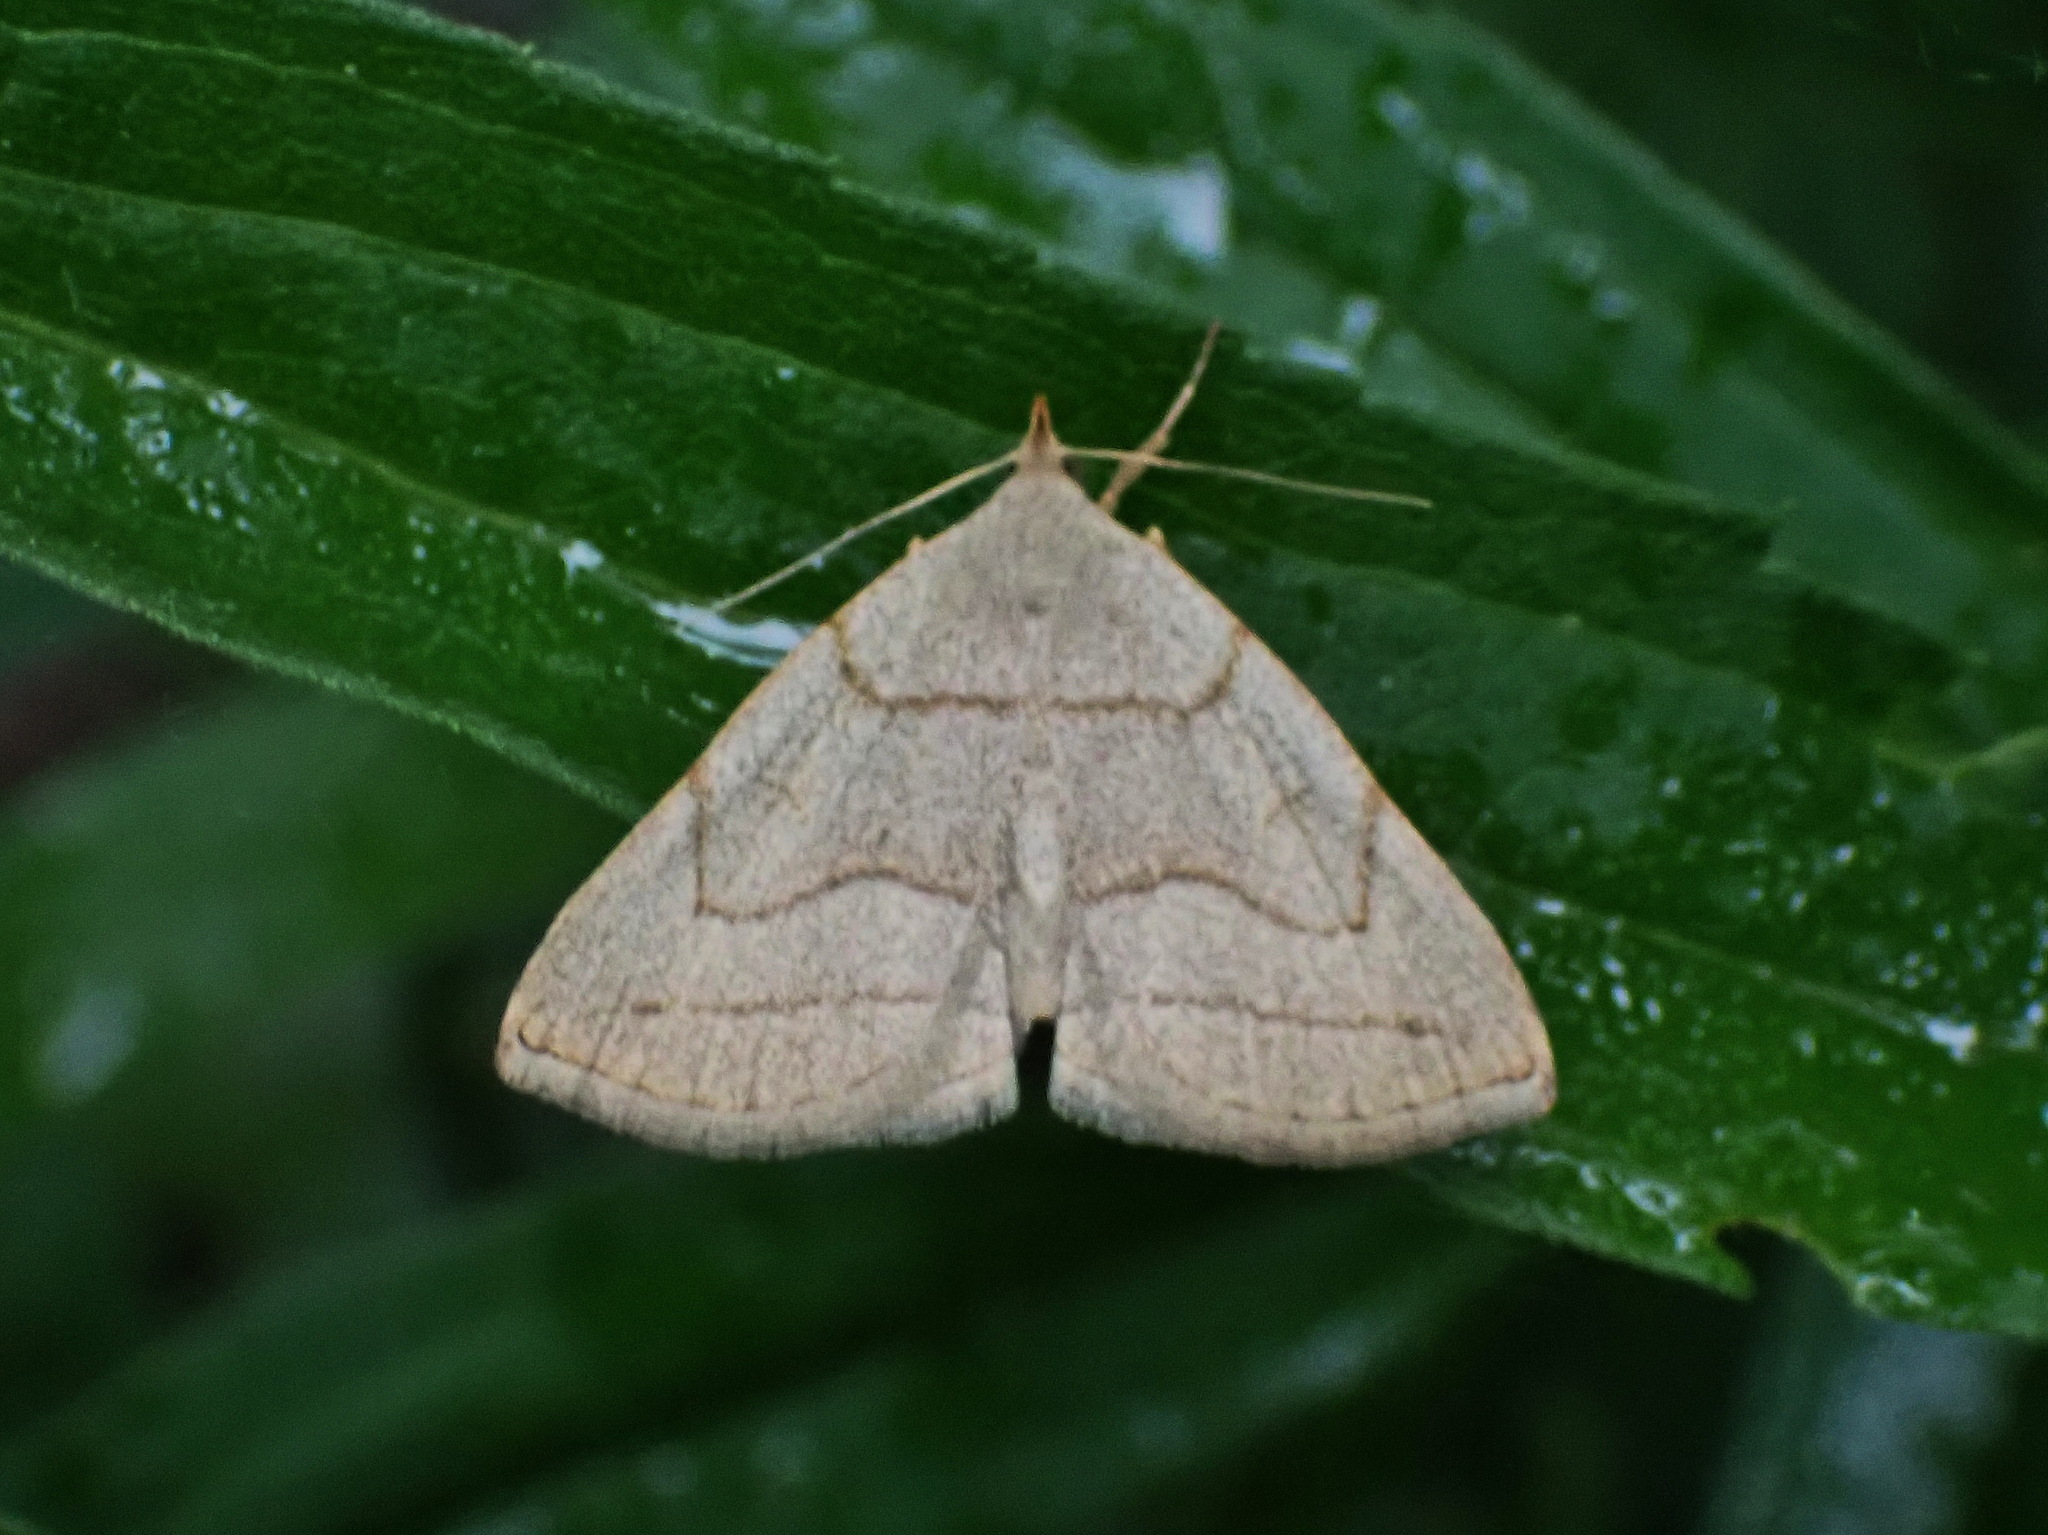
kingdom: Animalia
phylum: Arthropoda
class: Insecta
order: Lepidoptera
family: Erebidae
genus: Zanclognatha
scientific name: Zanclognatha pedipilalis
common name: Grayish fan-foot
